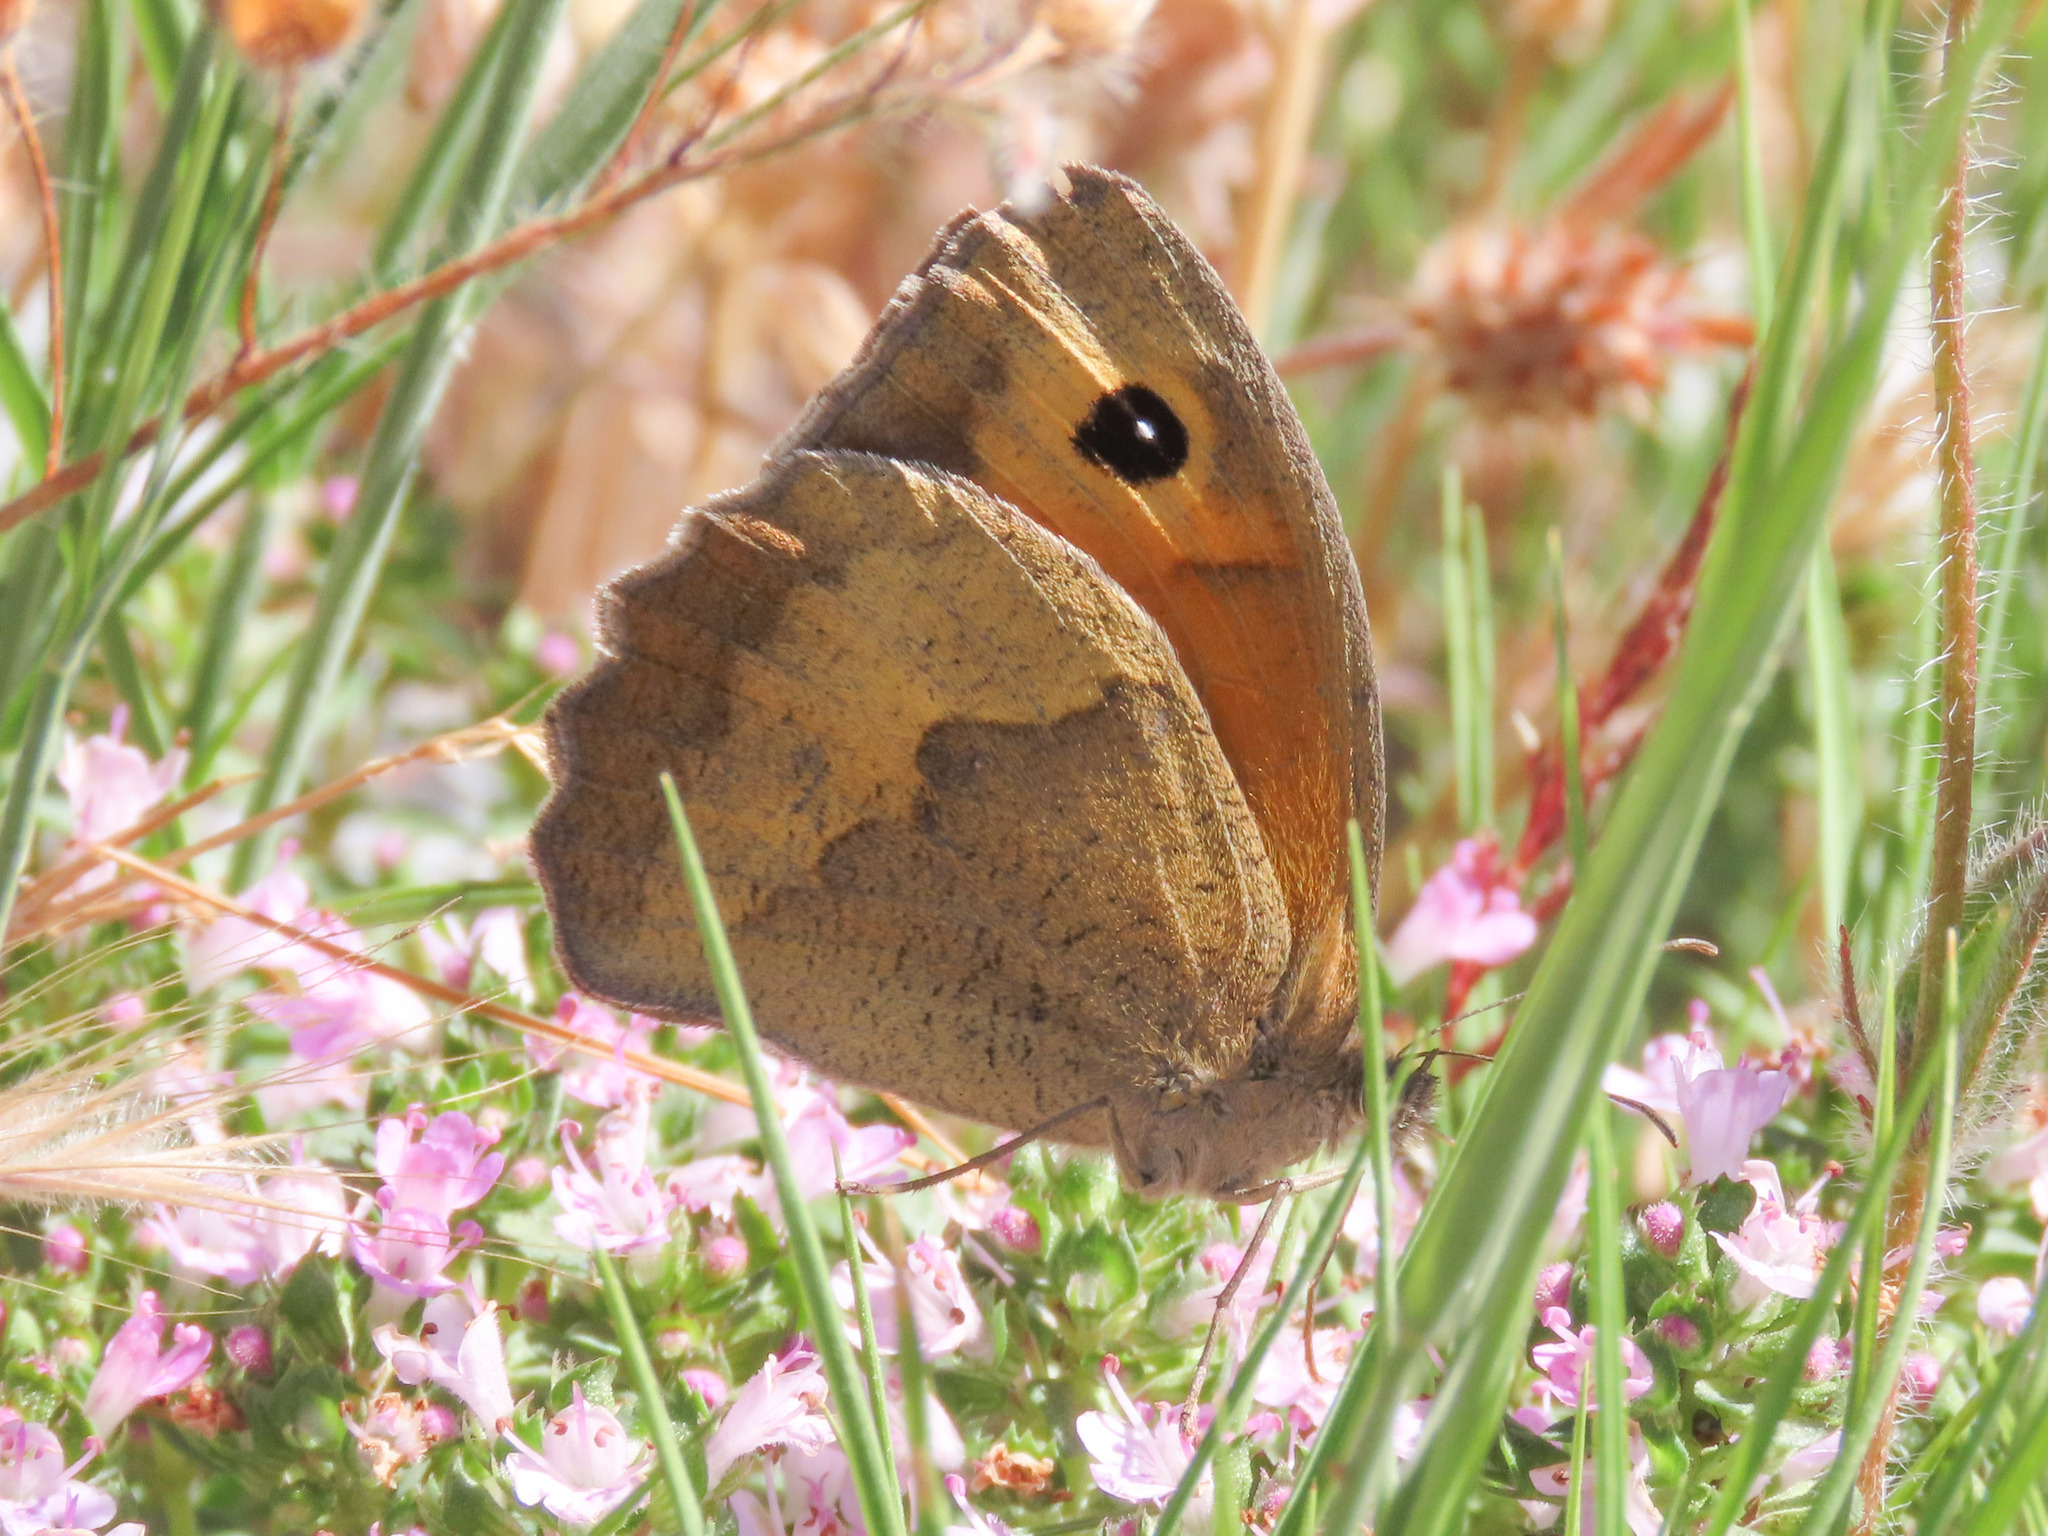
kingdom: Animalia
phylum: Arthropoda
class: Insecta
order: Lepidoptera
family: Nymphalidae
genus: Maniola
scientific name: Maniola jurtina
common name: Meadow brown
